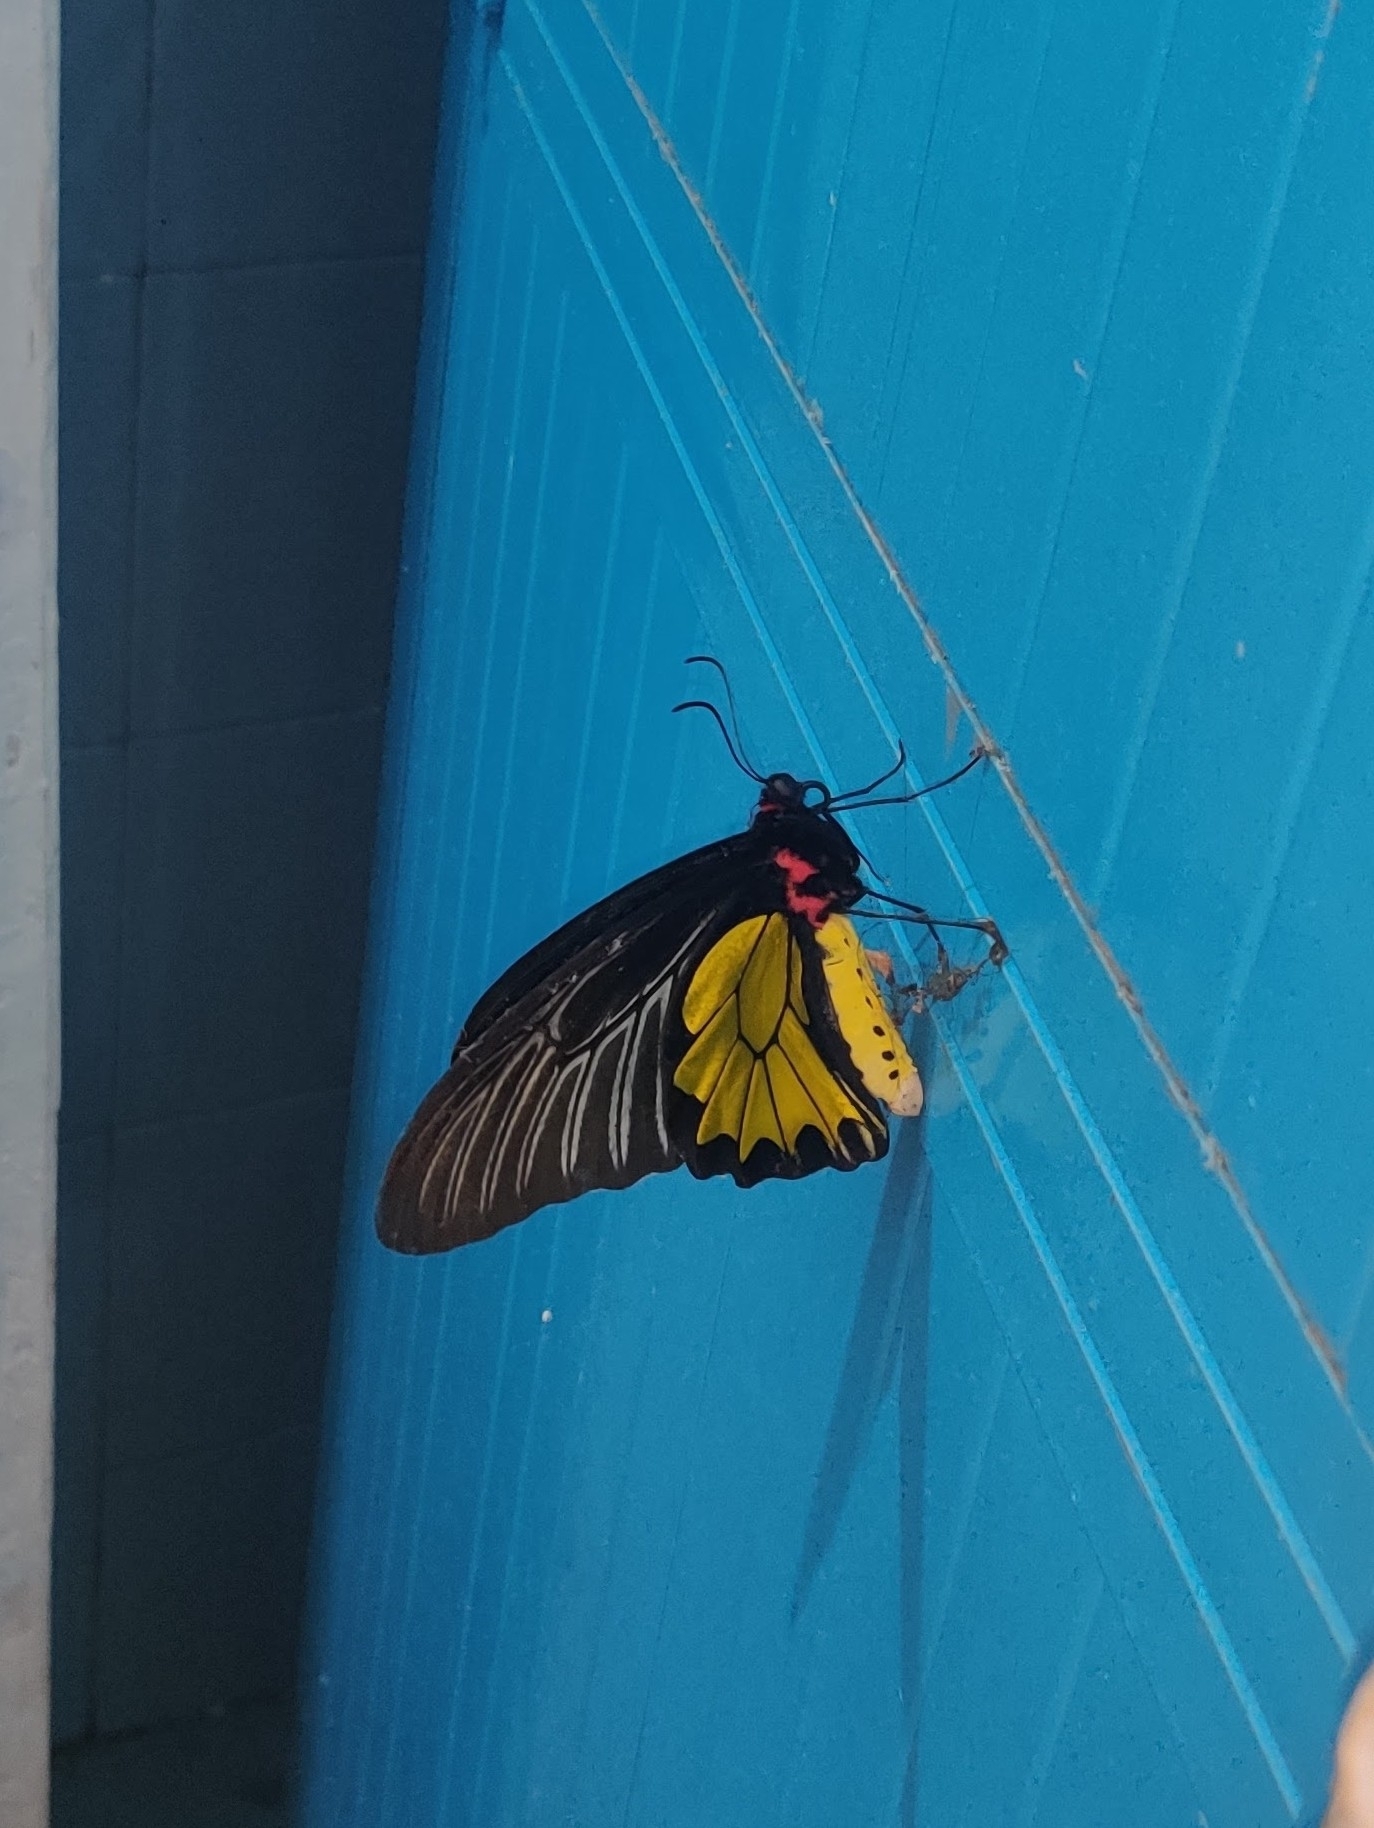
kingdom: Animalia
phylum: Arthropoda
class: Insecta
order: Lepidoptera
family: Papilionidae
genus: Troides
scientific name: Troides minos
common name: Malabar birdwing
